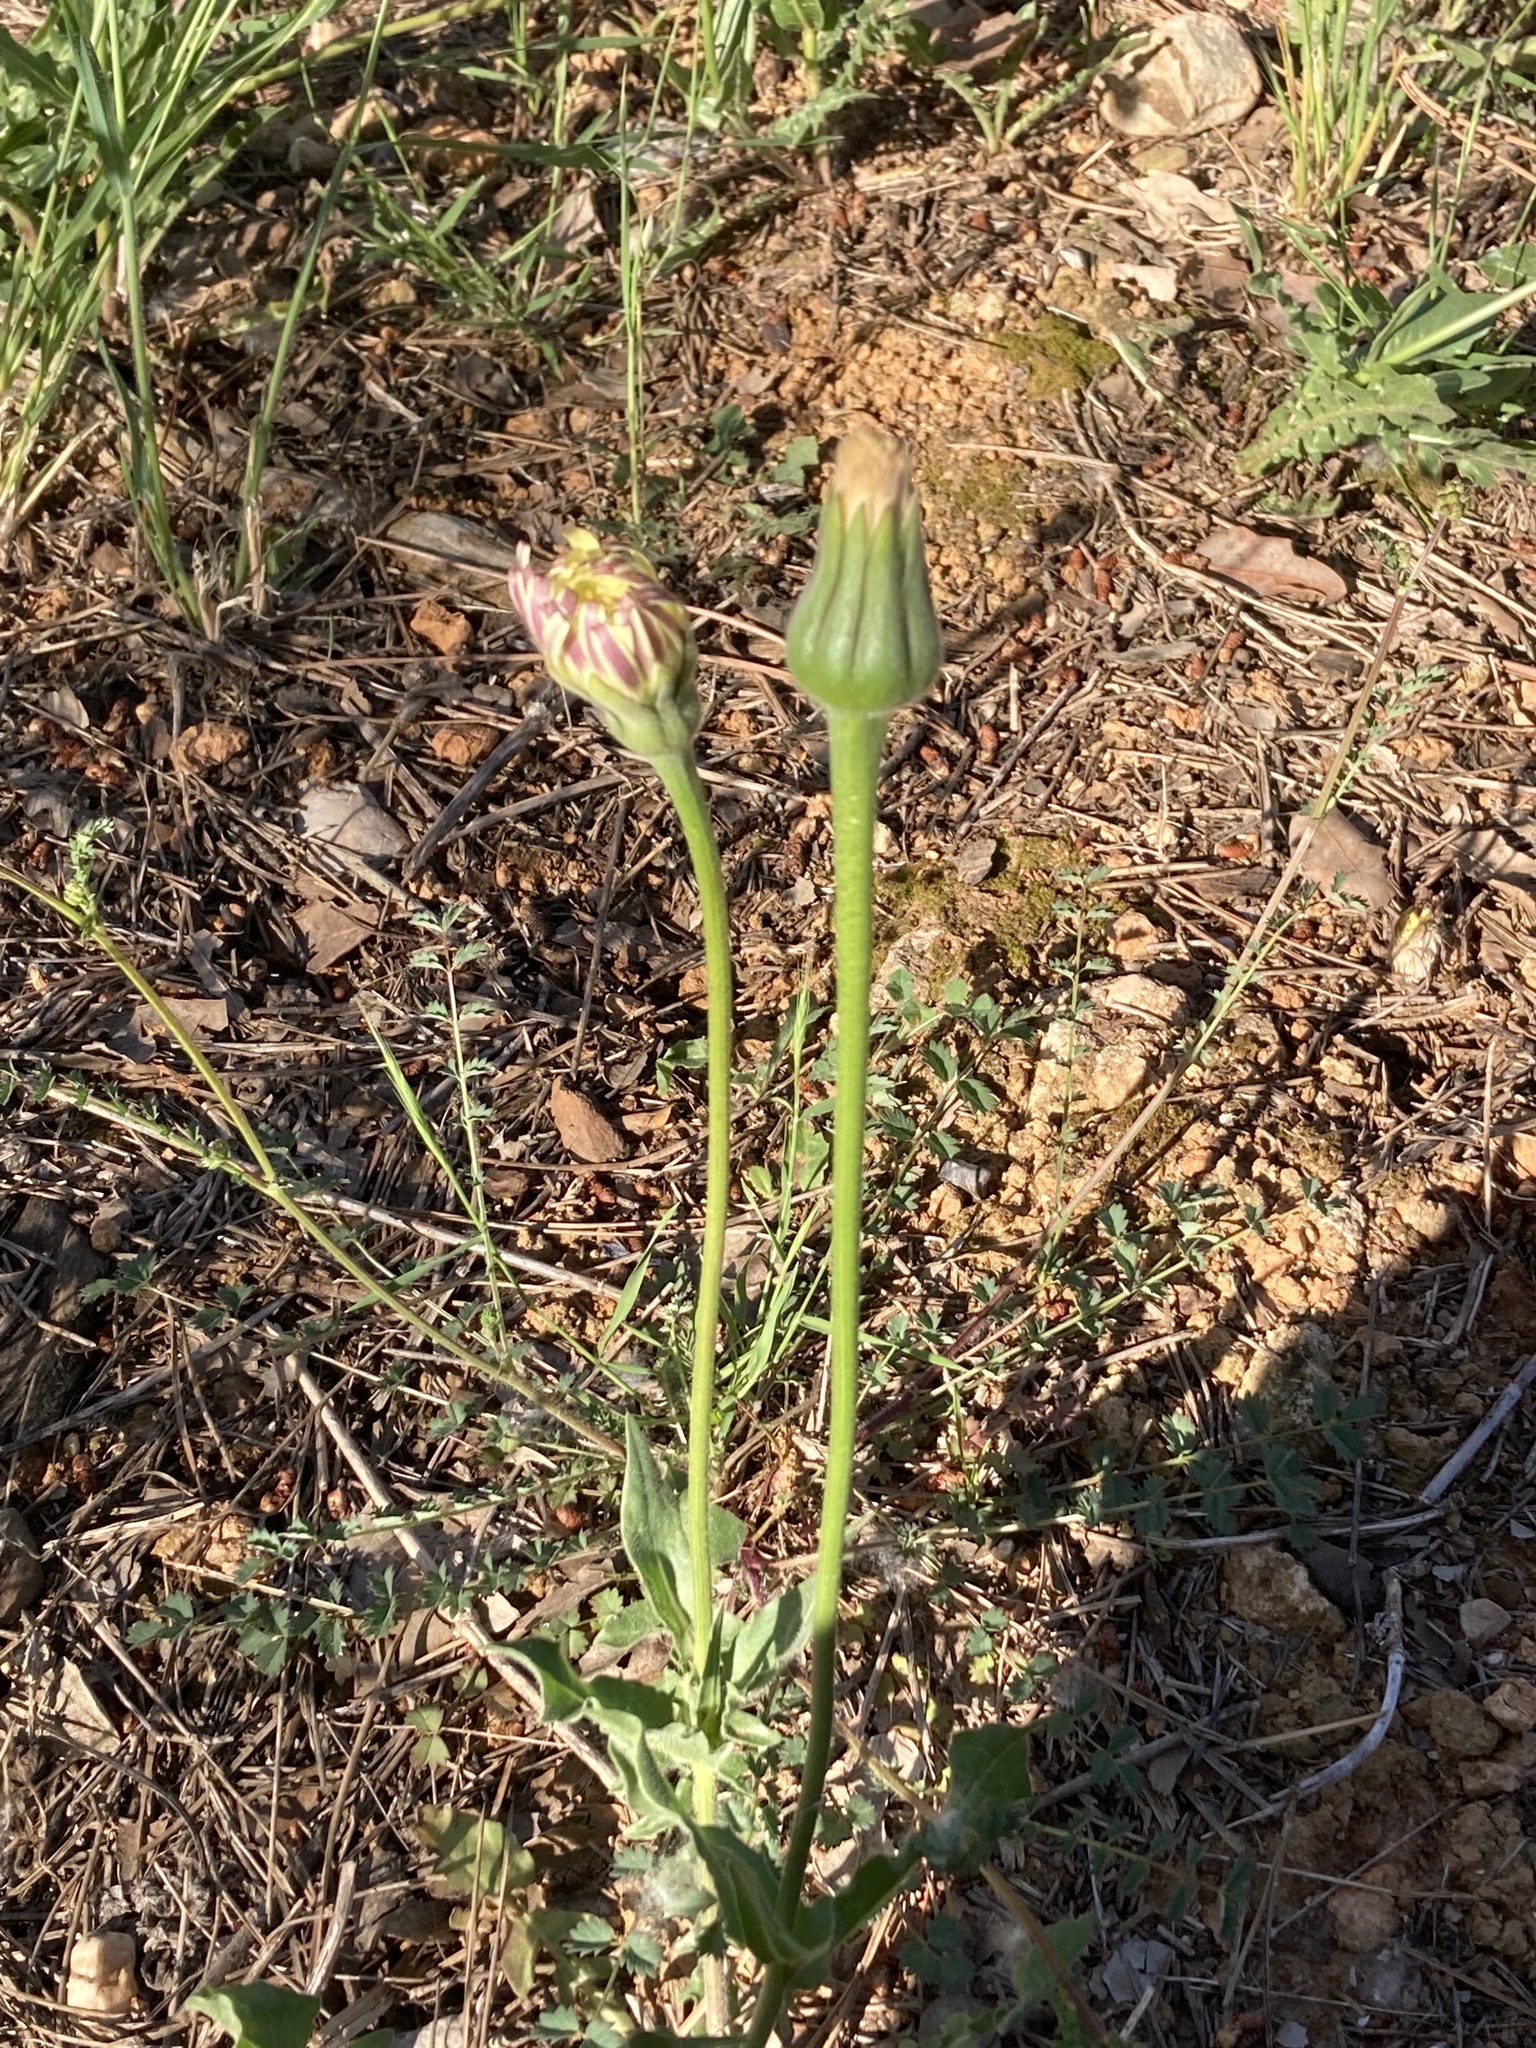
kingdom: Plantae
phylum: Tracheophyta
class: Magnoliopsida
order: Asterales
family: Asteraceae
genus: Urospermum
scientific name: Urospermum dalechampii
